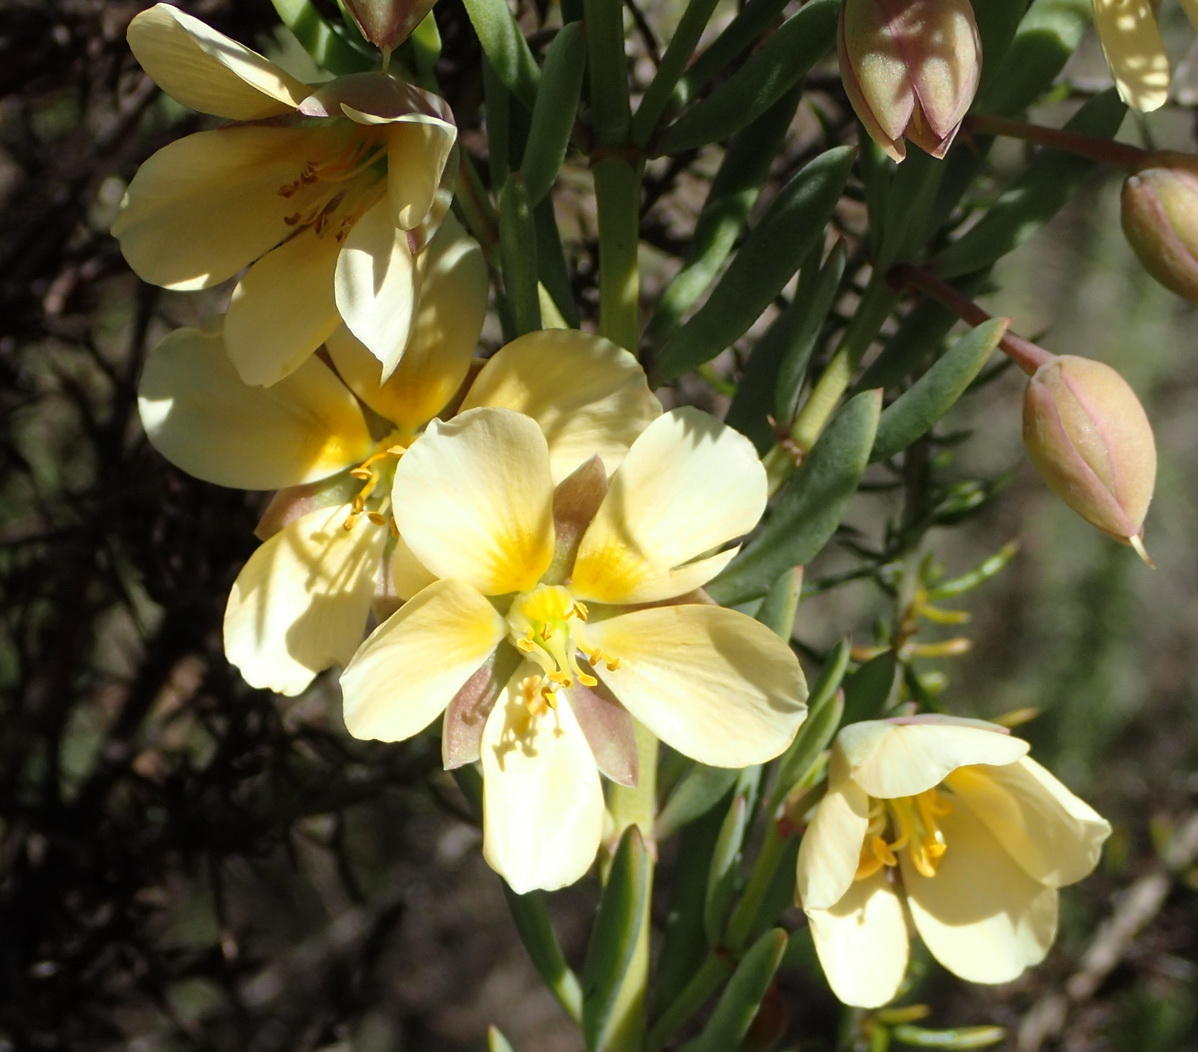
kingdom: Plantae
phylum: Tracheophyta
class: Magnoliopsida
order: Zygophyllales
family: Zygophyllaceae
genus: Roepera
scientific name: Roepera fulva
